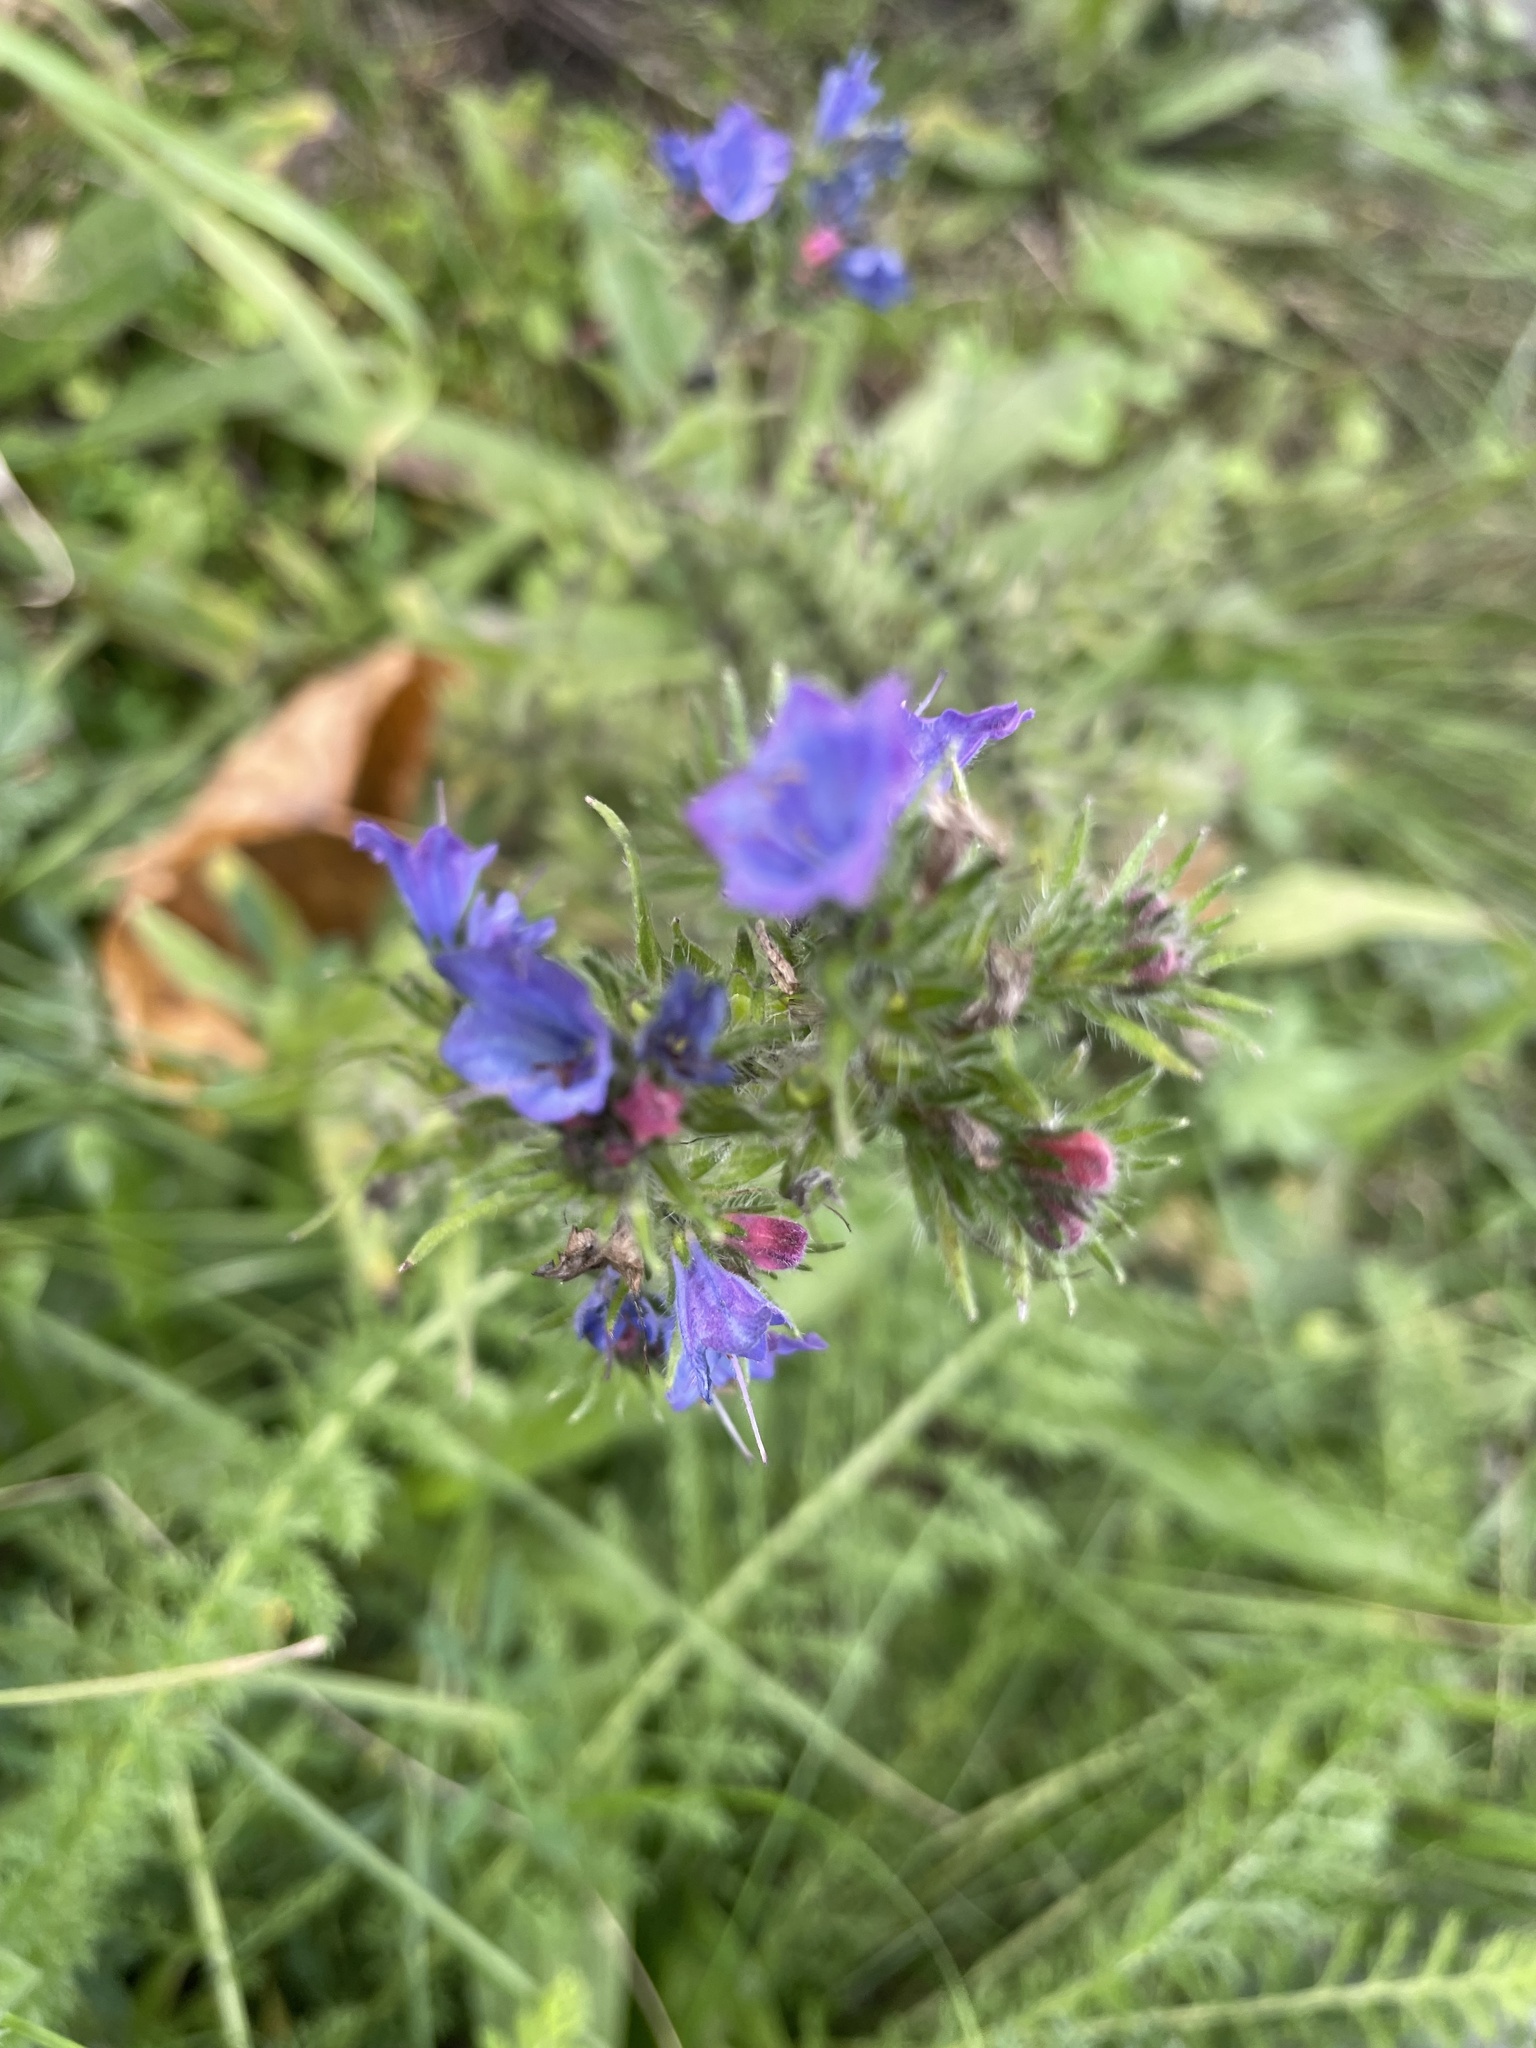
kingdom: Plantae
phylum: Tracheophyta
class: Magnoliopsida
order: Boraginales
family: Boraginaceae
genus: Echium
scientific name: Echium vulgare
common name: Common viper's bugloss
